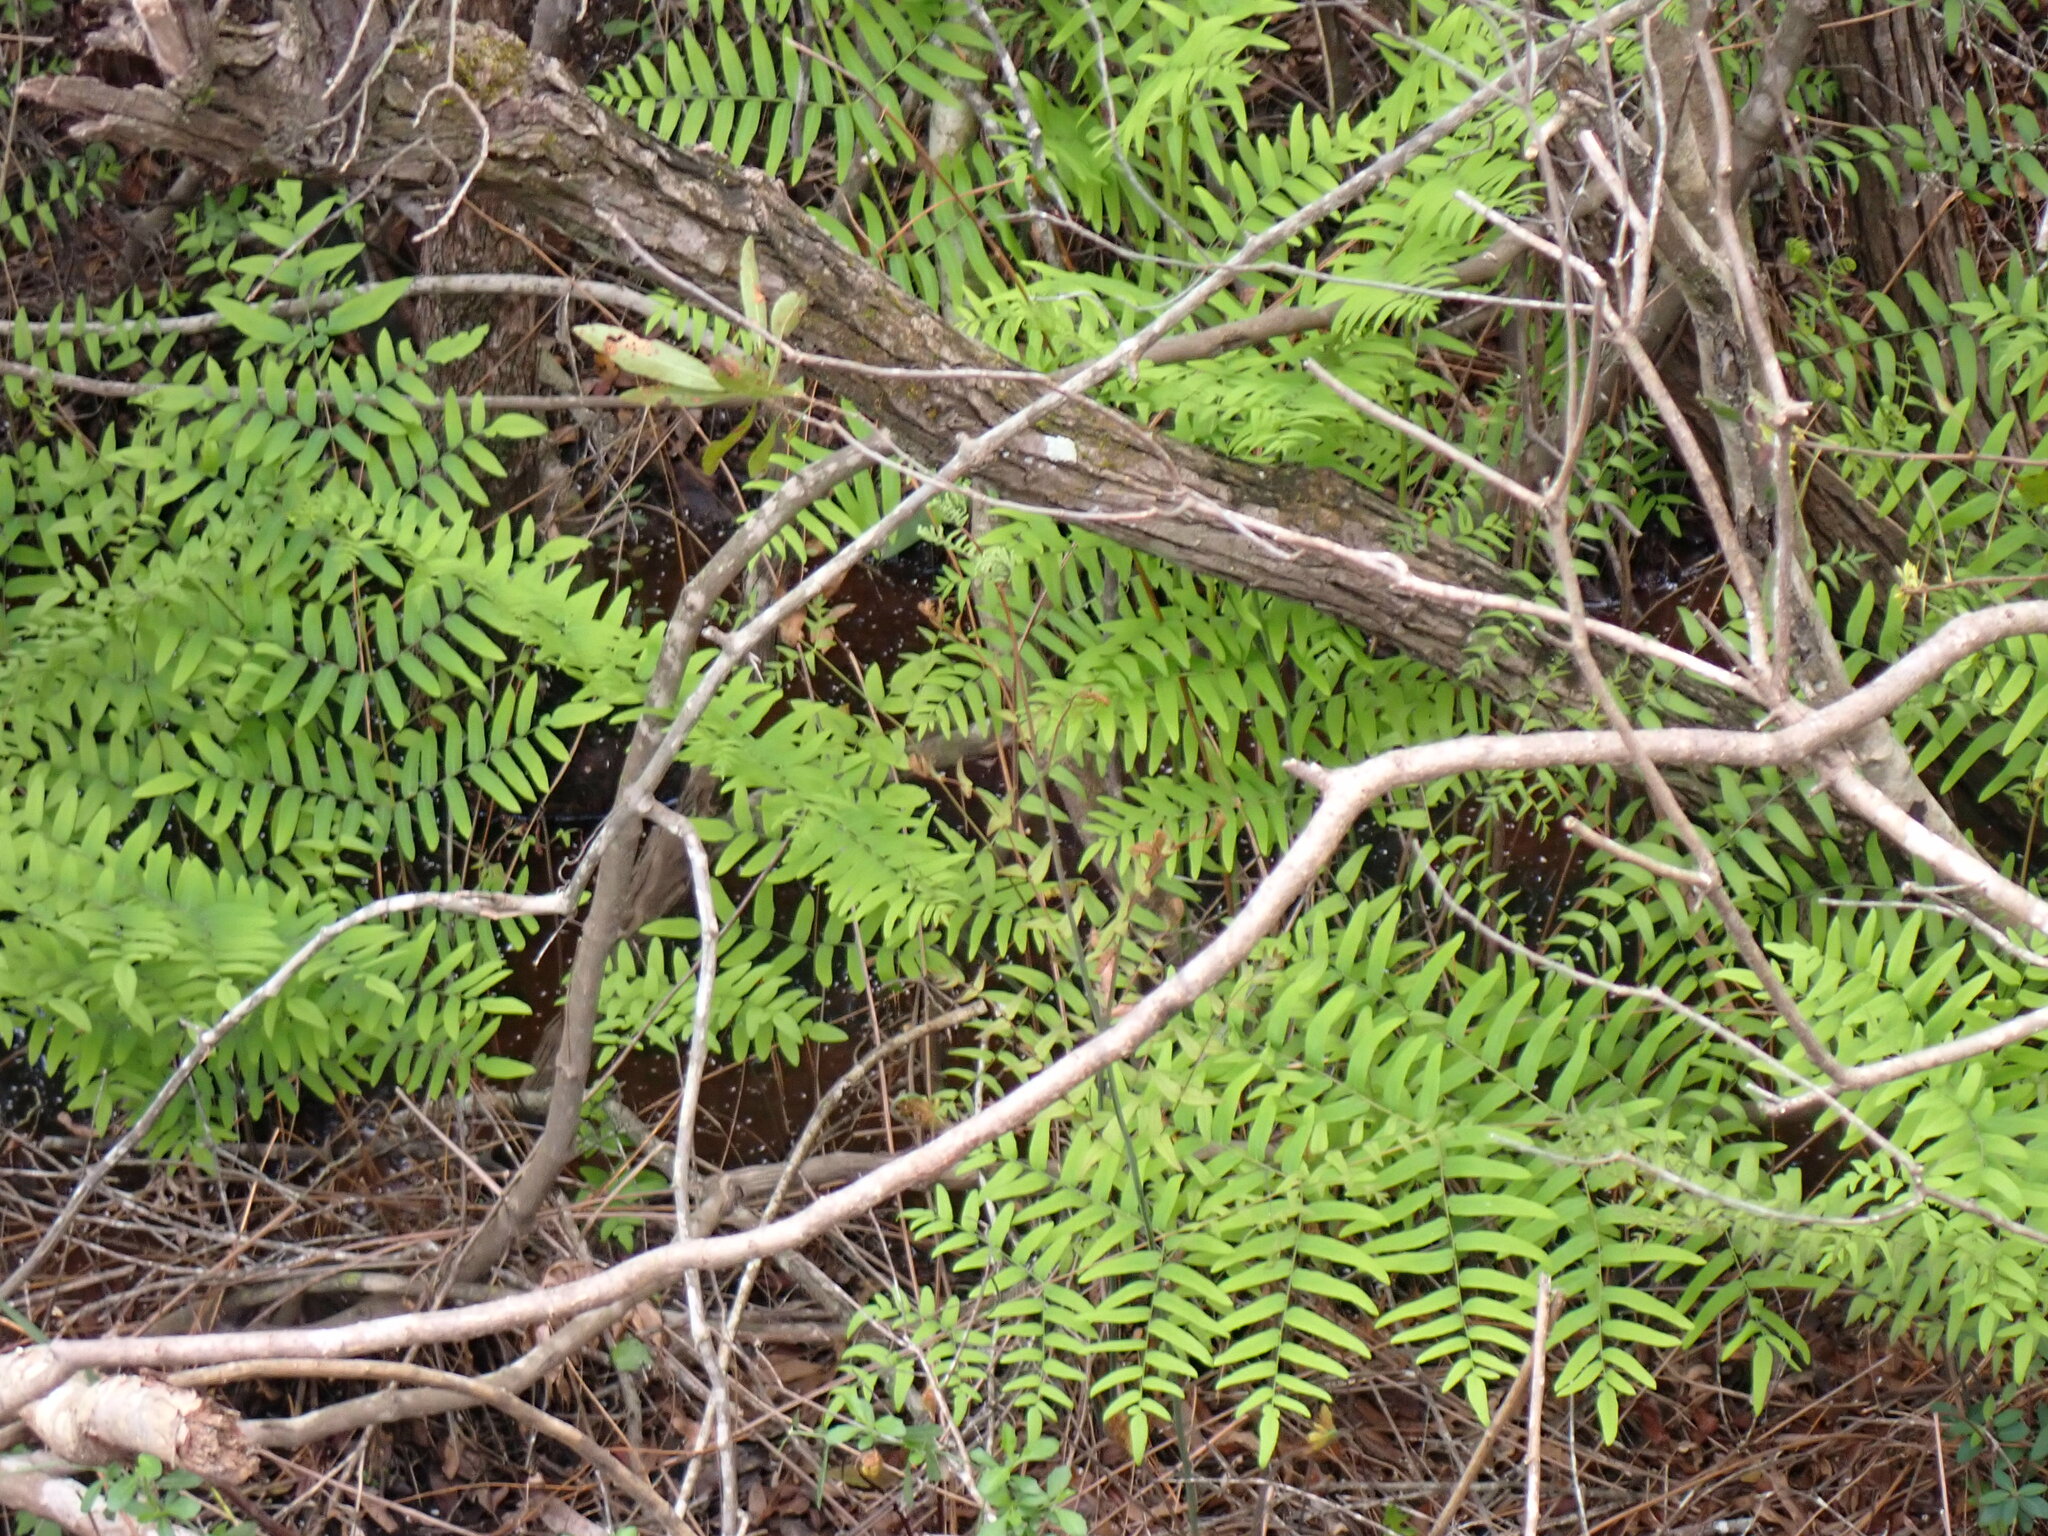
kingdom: Plantae
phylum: Tracheophyta
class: Polypodiopsida
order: Osmundales
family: Osmundaceae
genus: Osmunda
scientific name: Osmunda spectabilis
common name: American royal fern
